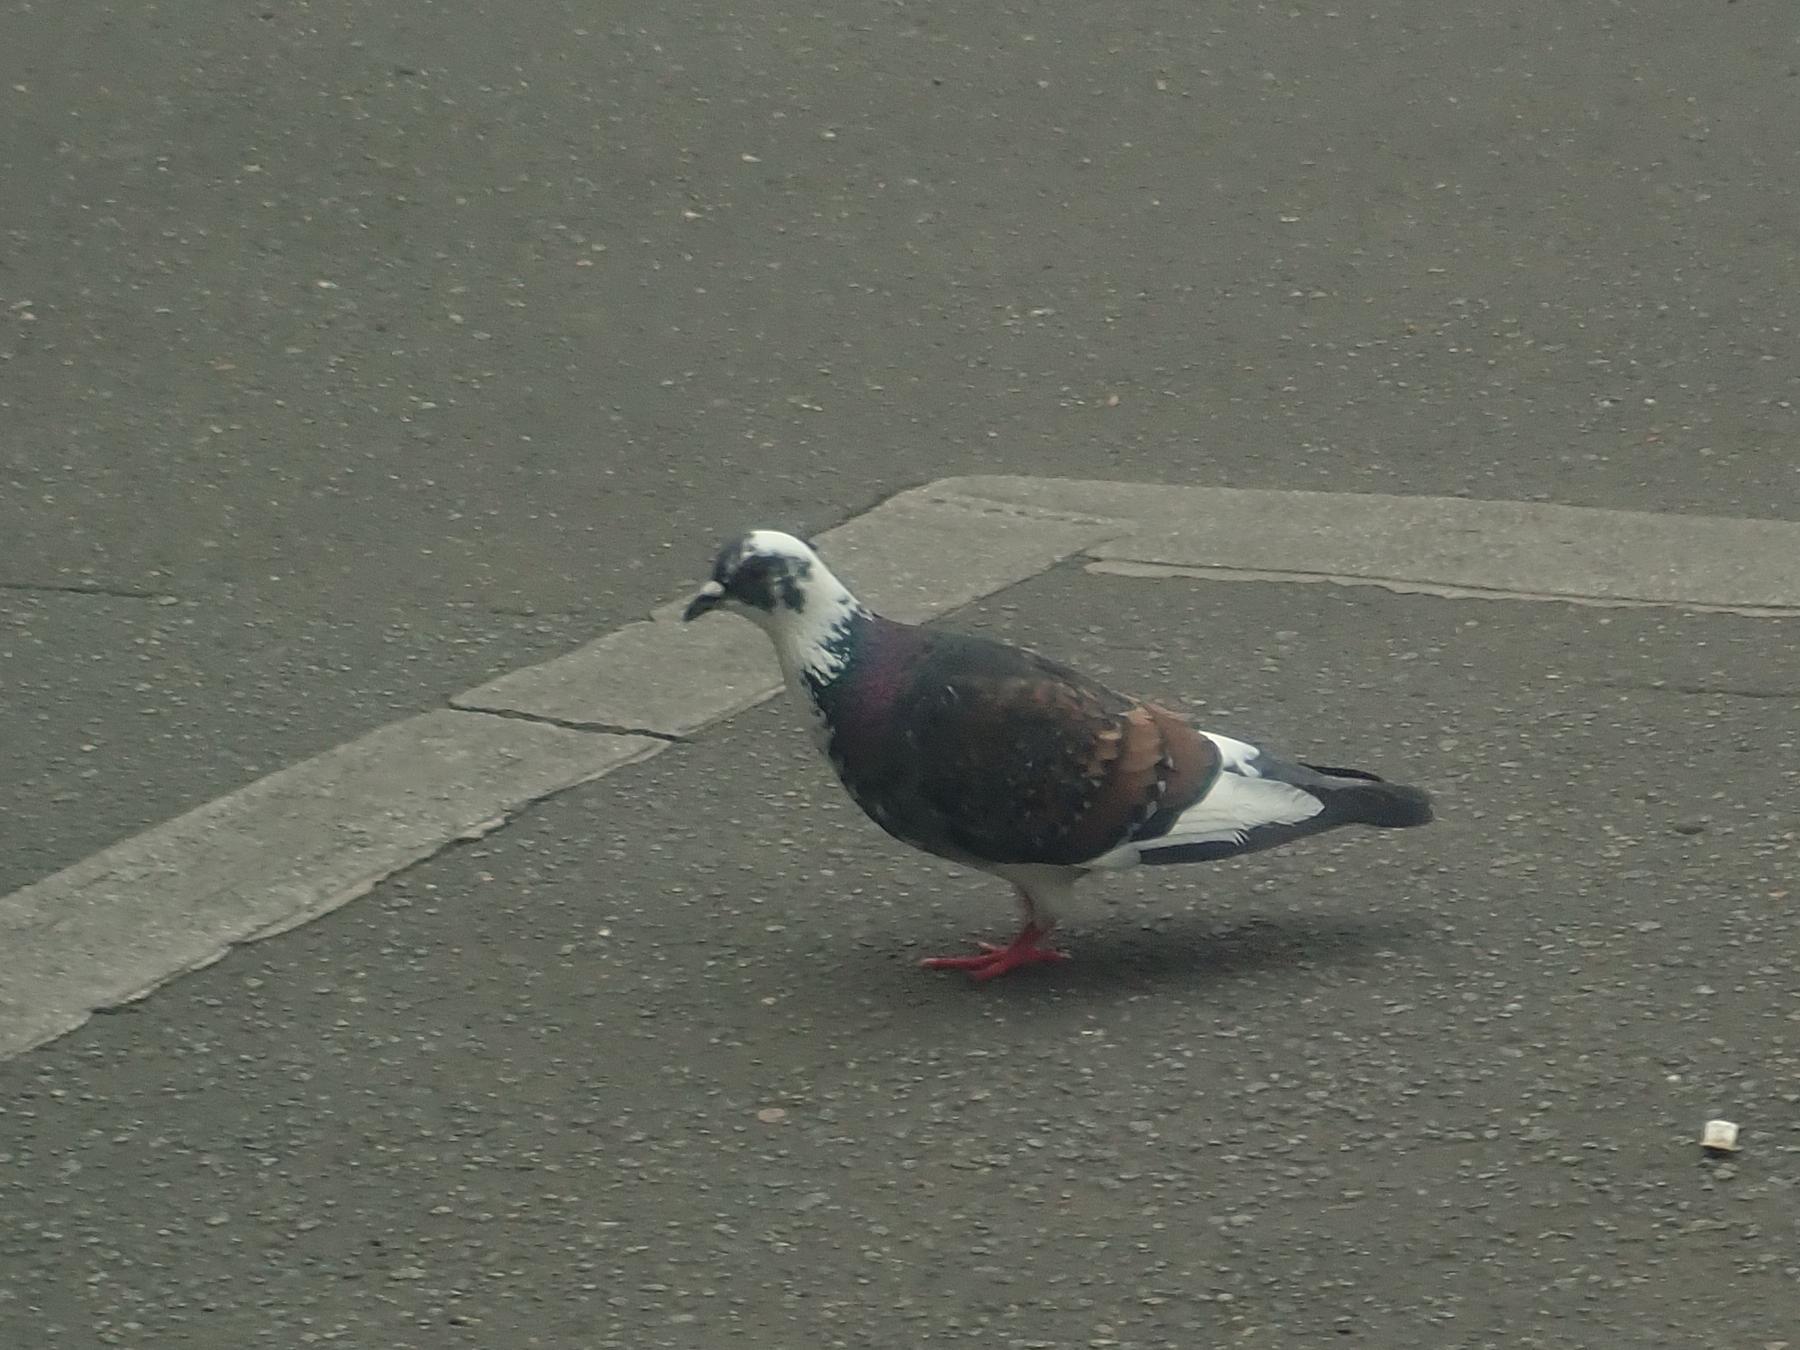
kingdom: Animalia
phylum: Chordata
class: Aves
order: Columbiformes
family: Columbidae
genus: Columba
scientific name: Columba livia
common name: Rock pigeon
